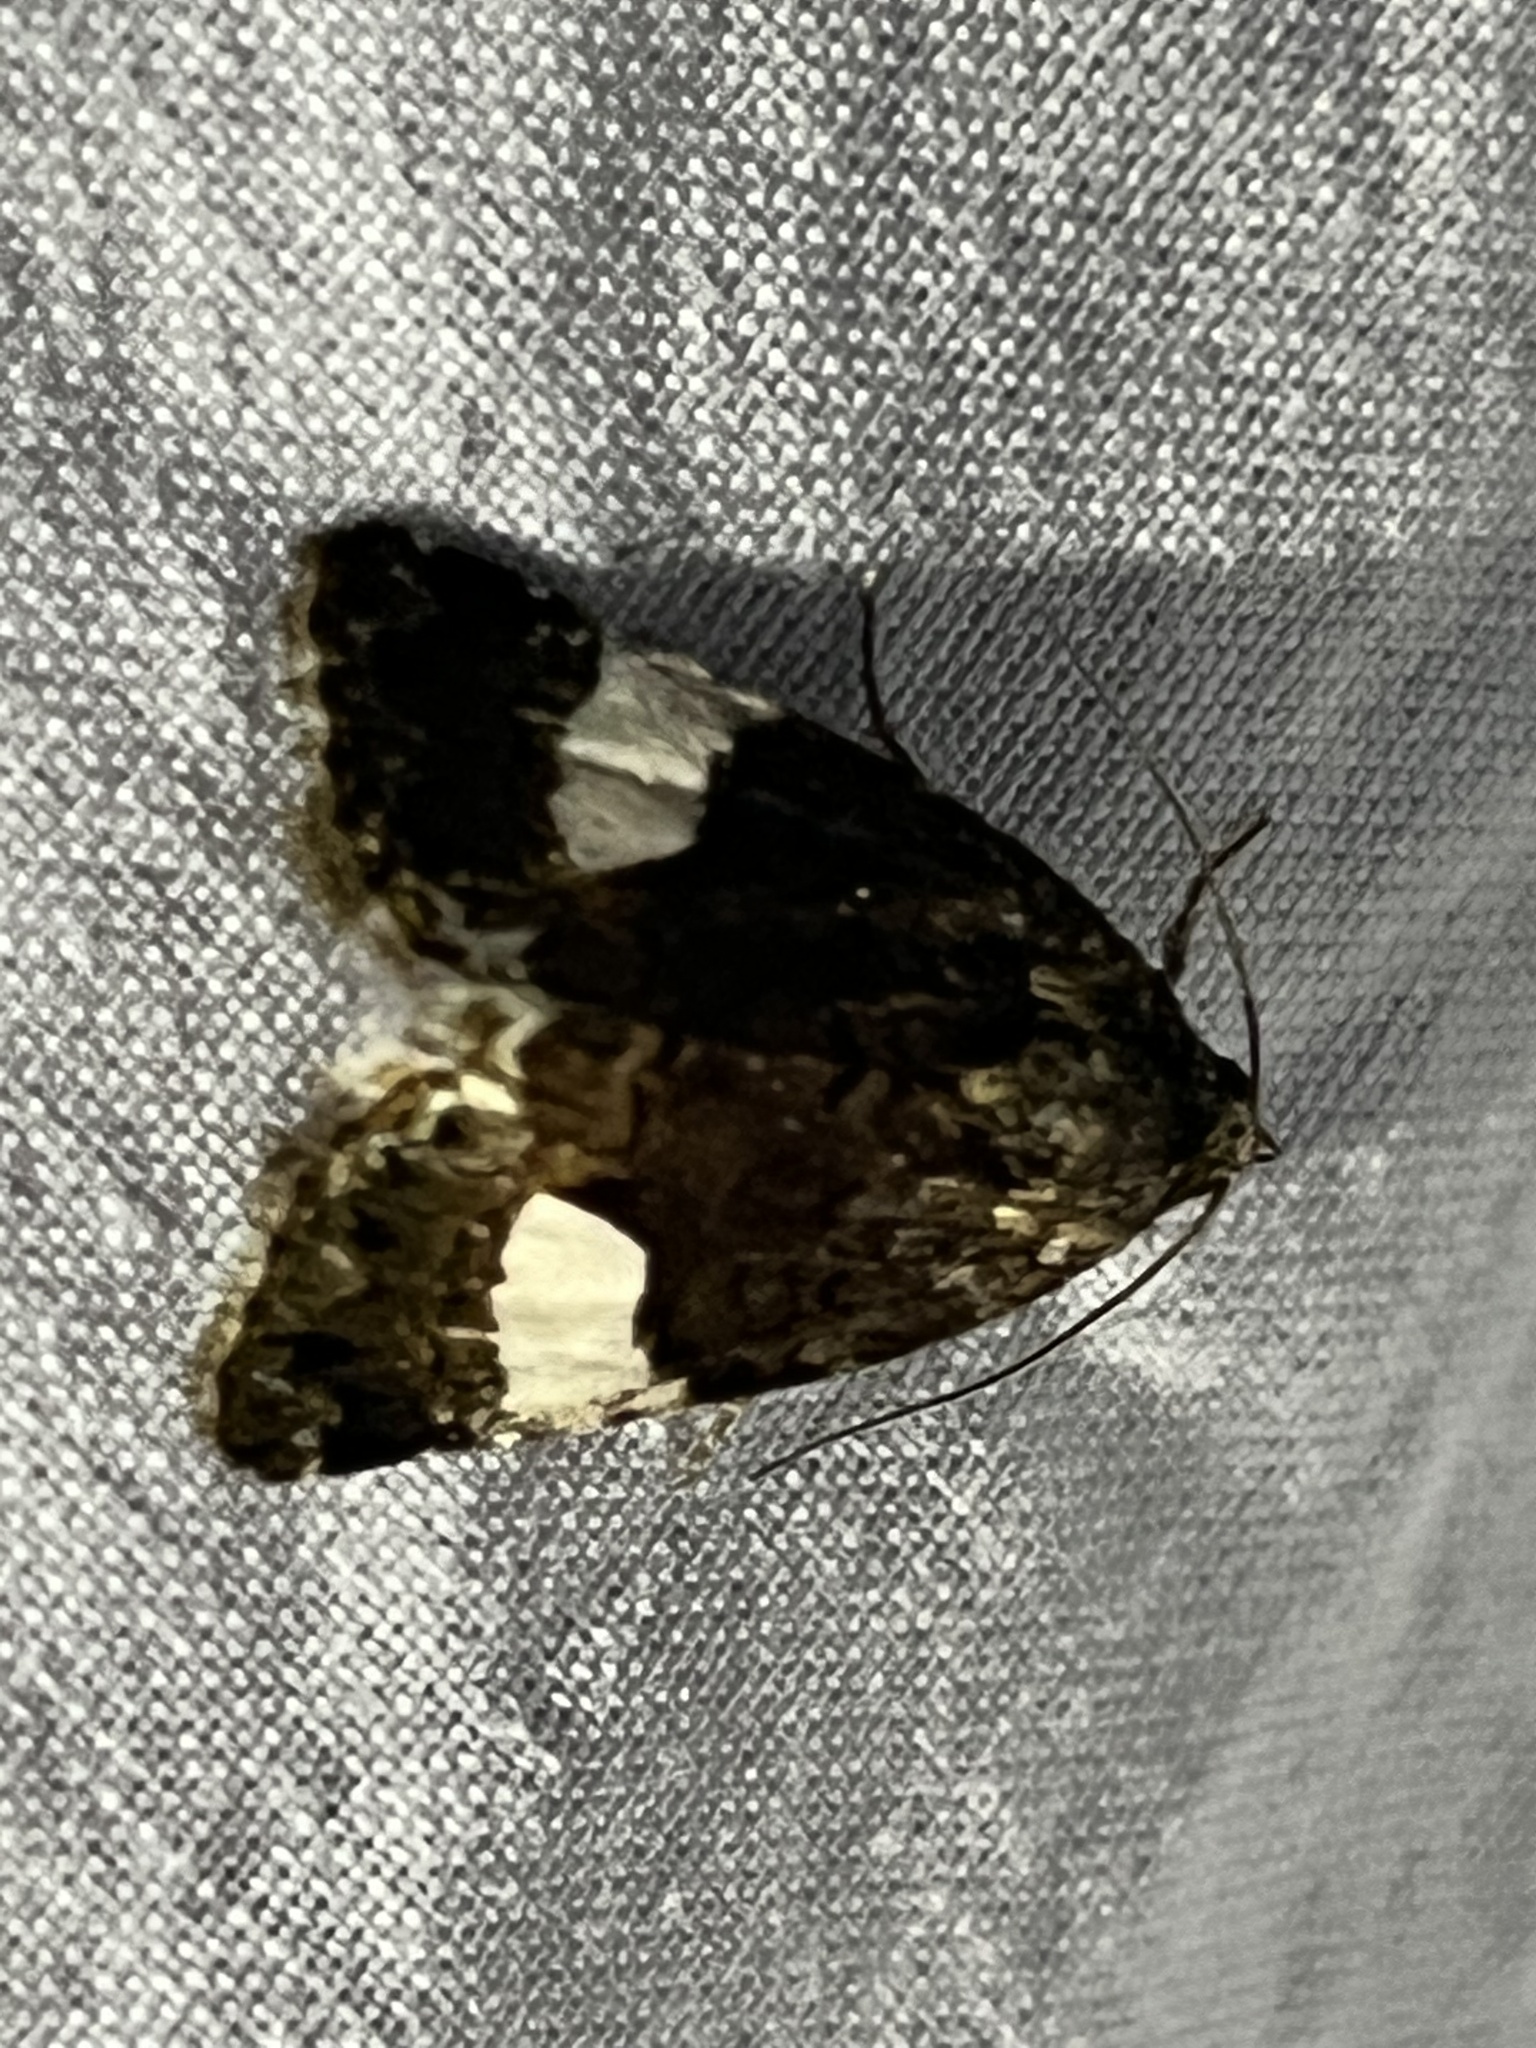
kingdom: Animalia
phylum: Arthropoda
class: Insecta
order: Lepidoptera
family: Erebidae
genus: Tyta
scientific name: Tyta luctuosa
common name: Four-spotted
